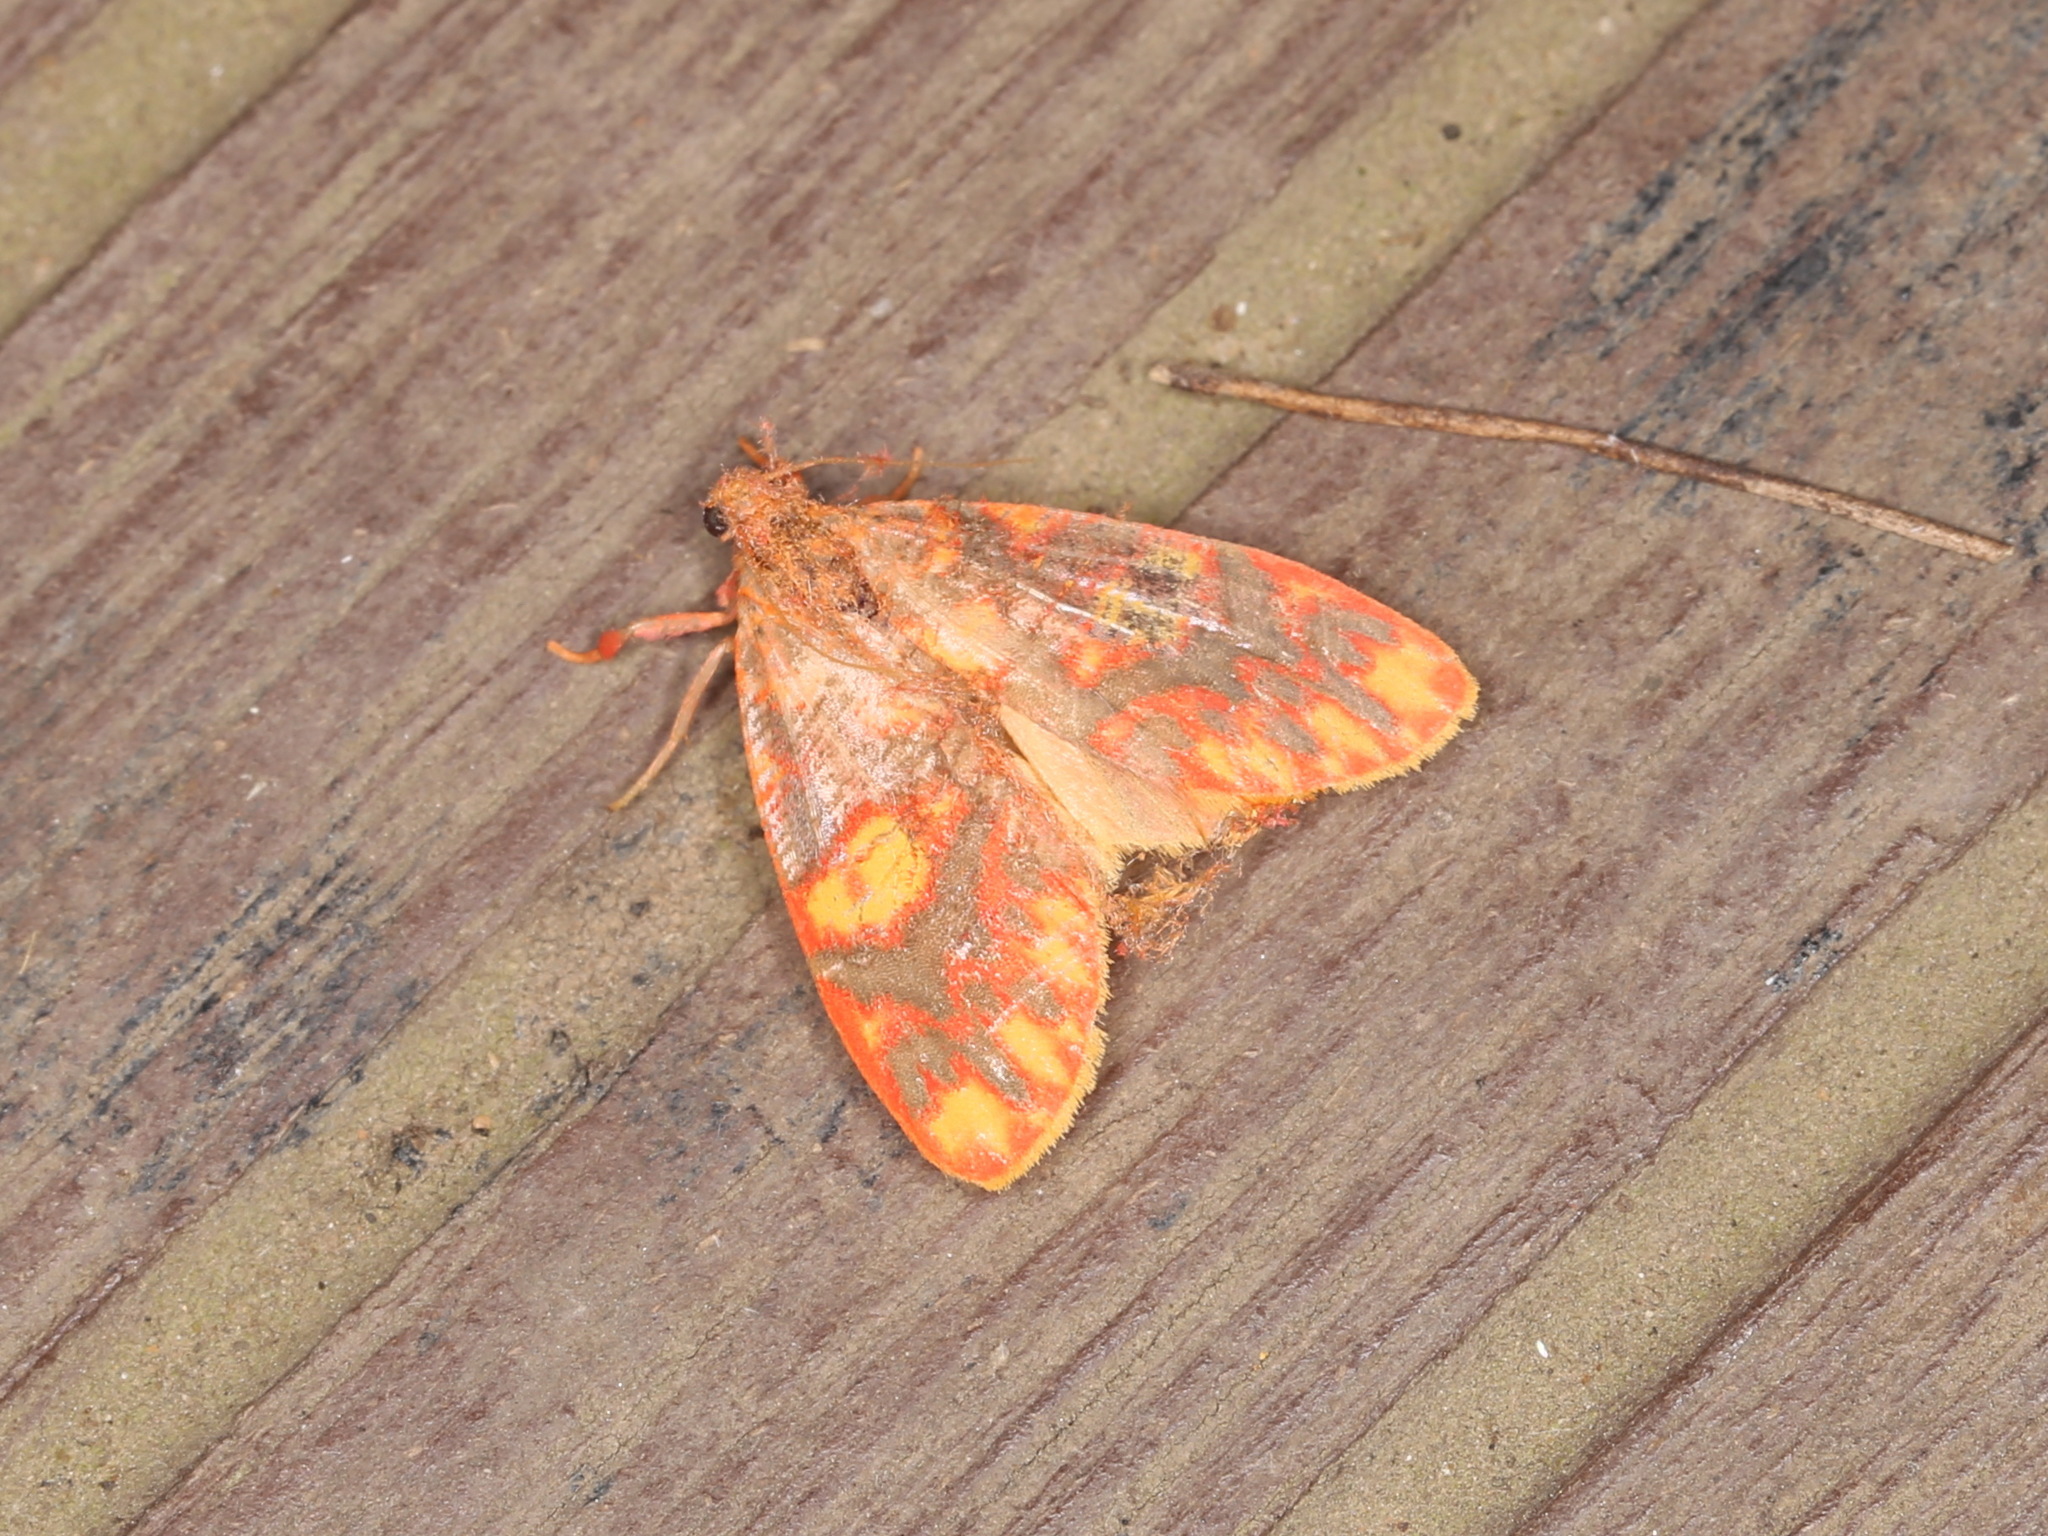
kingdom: Animalia
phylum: Arthropoda
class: Insecta
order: Lepidoptera
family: Erebidae
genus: Floridasura
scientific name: Floridasura tricolor
